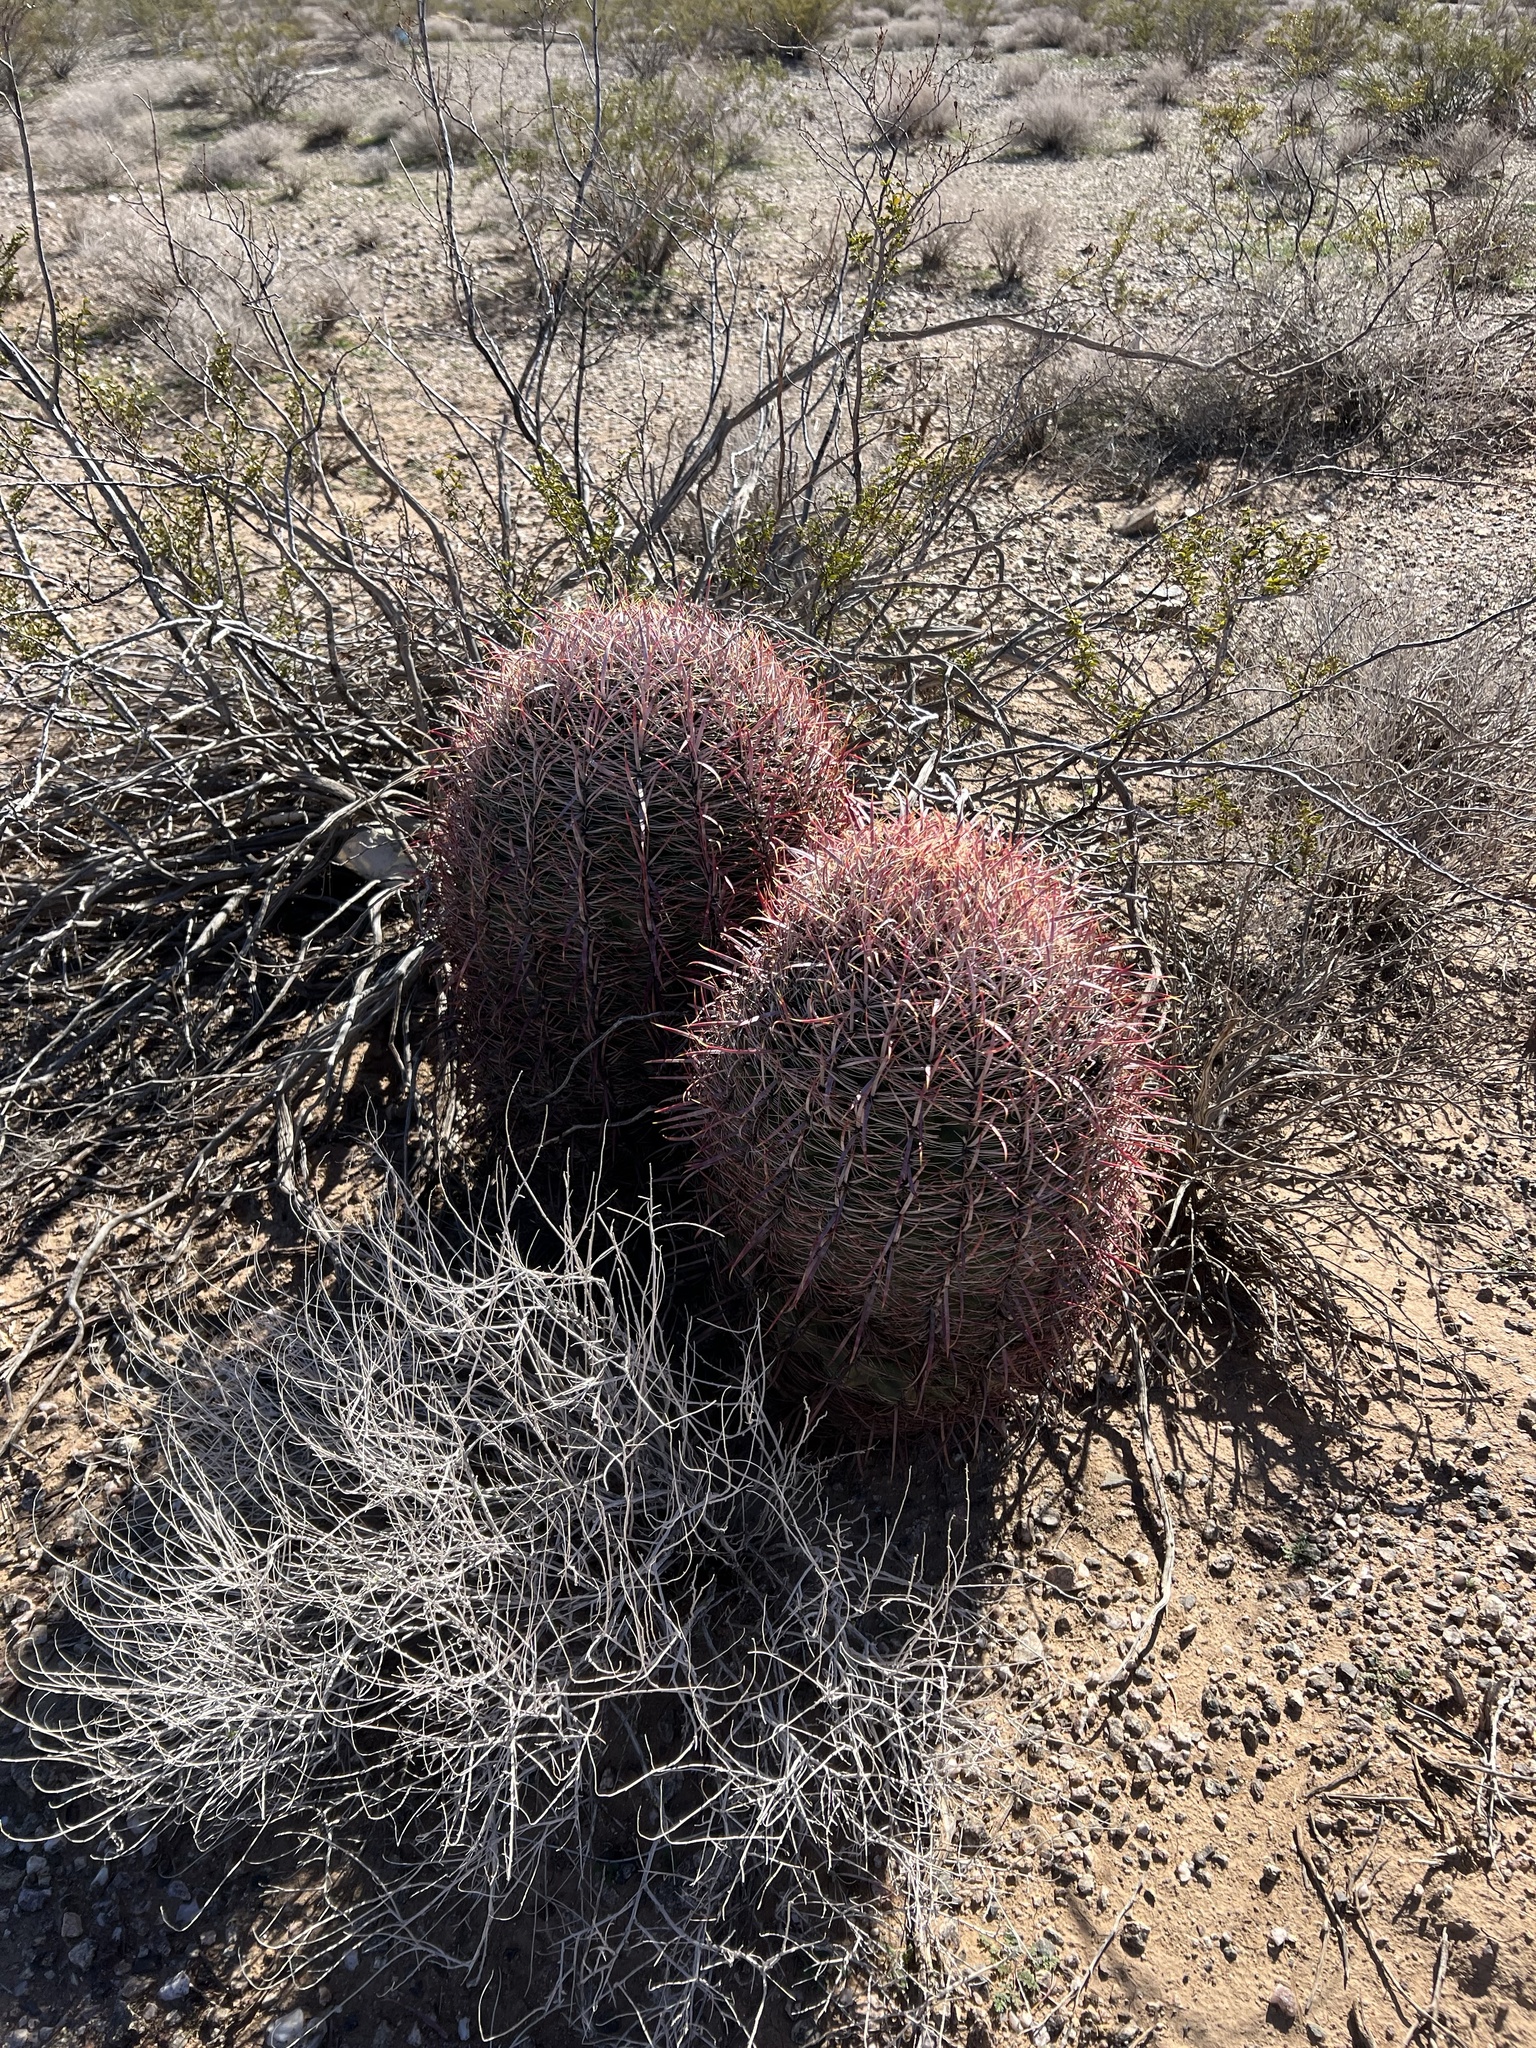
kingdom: Plantae
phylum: Tracheophyta
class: Magnoliopsida
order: Caryophyllales
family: Cactaceae
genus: Ferocactus
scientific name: Ferocactus cylindraceus
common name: California barrel cactus
